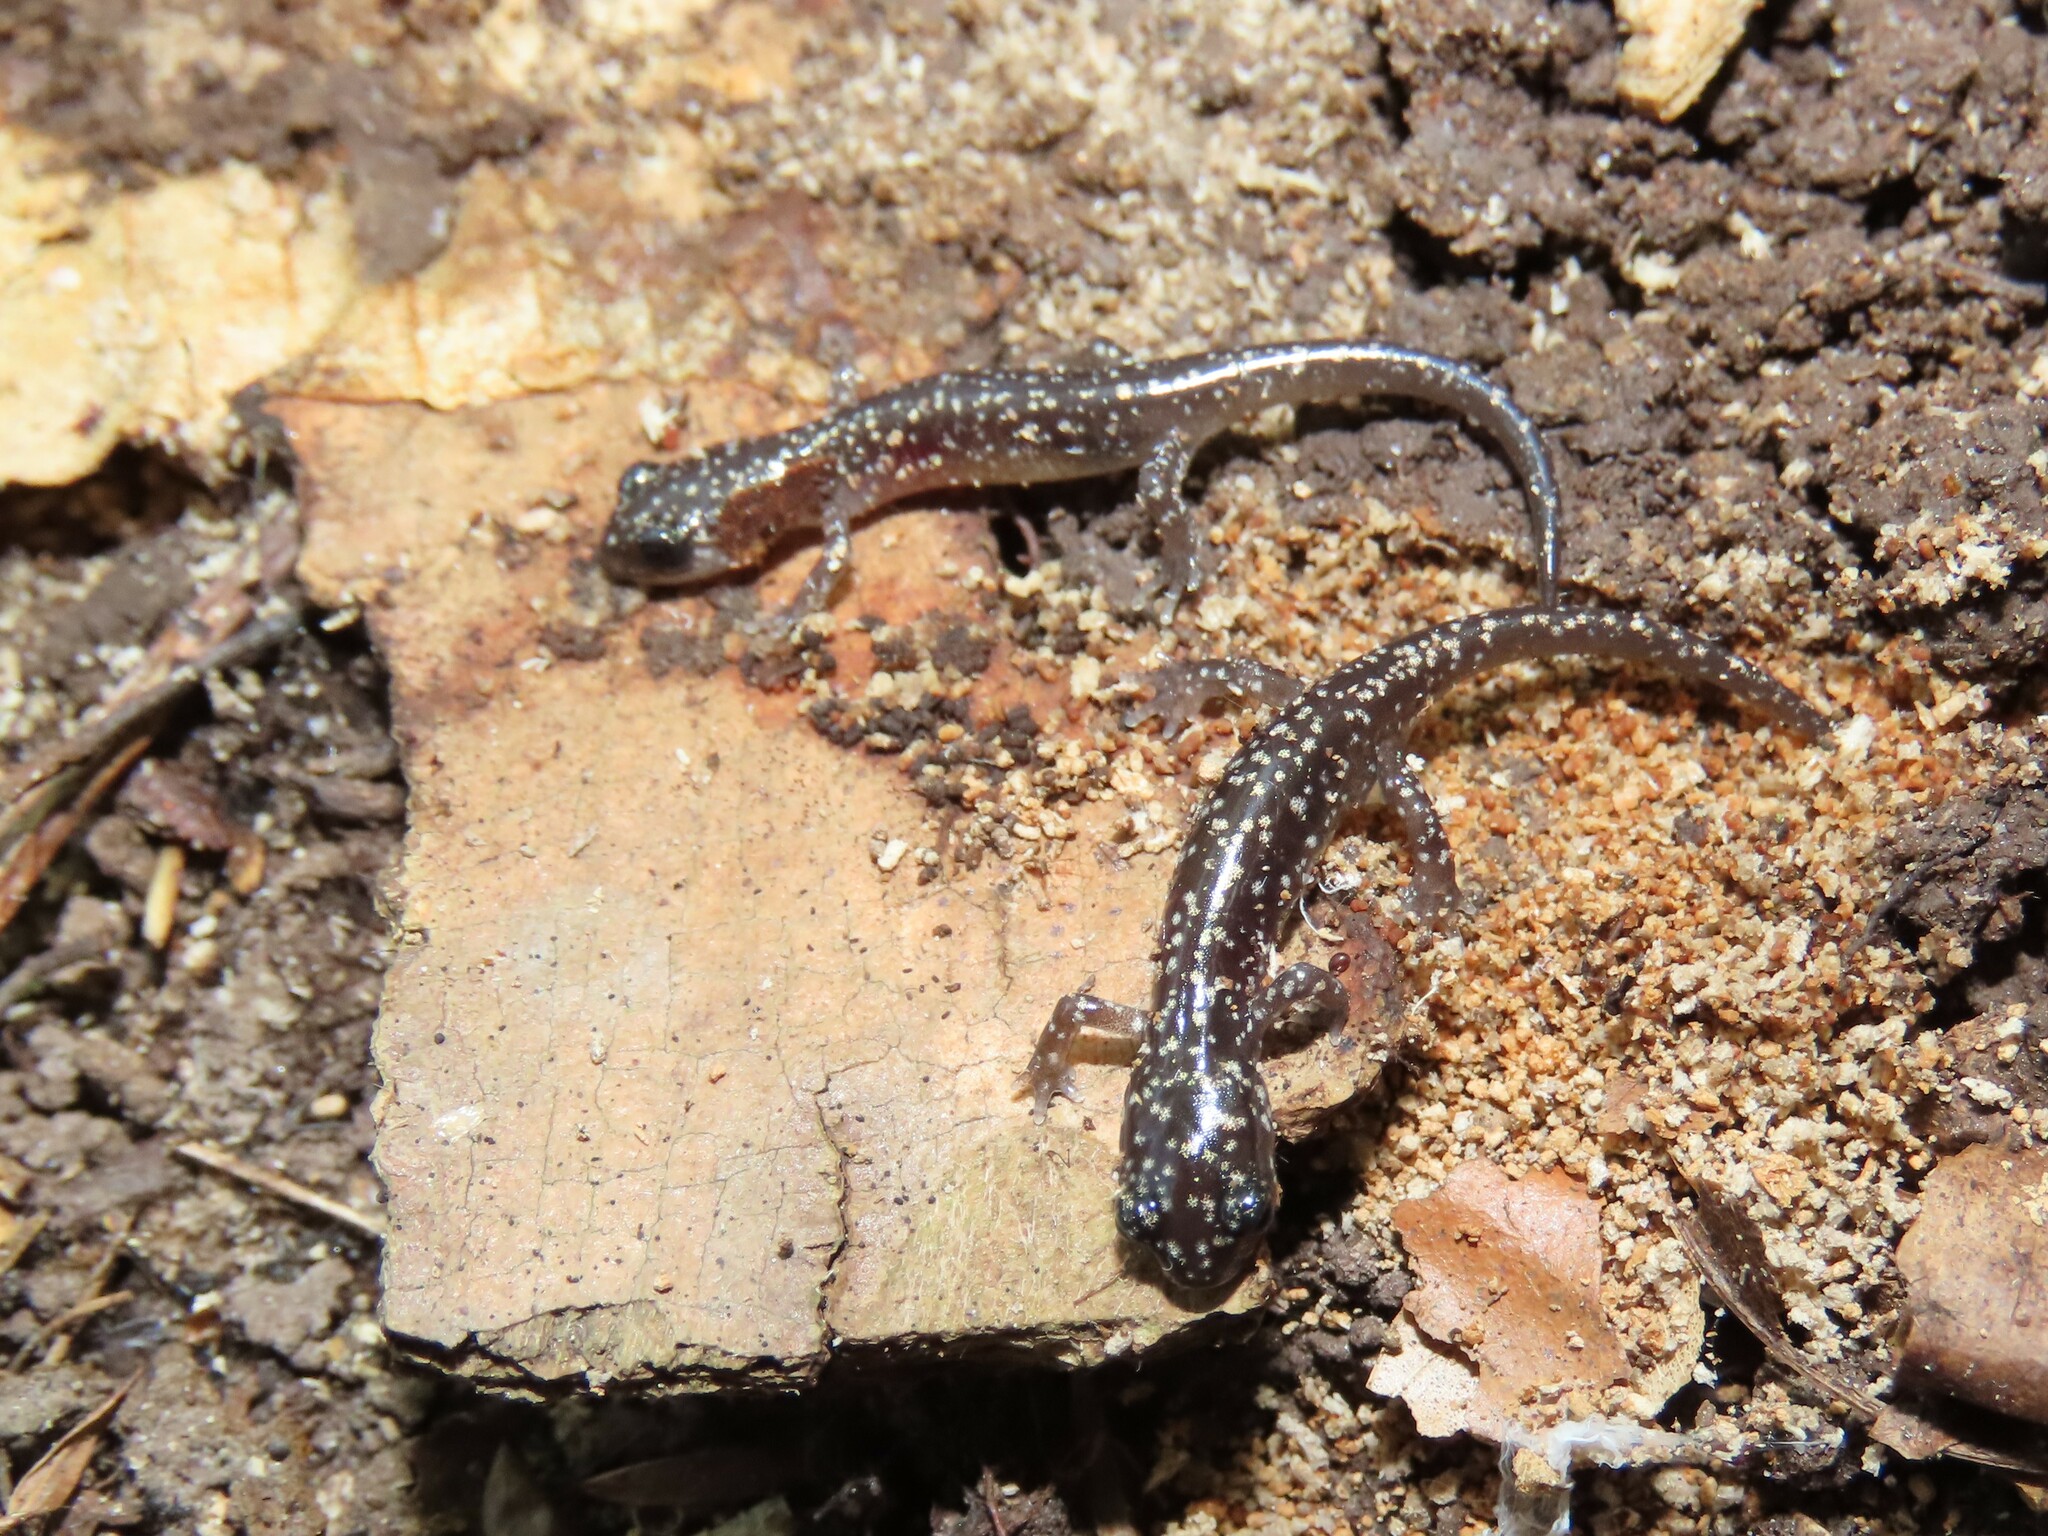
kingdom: Animalia
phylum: Chordata
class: Amphibia
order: Caudata
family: Plethodontidae
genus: Plethodon
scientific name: Plethodon glutinosus
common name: Northern slimy salamander
